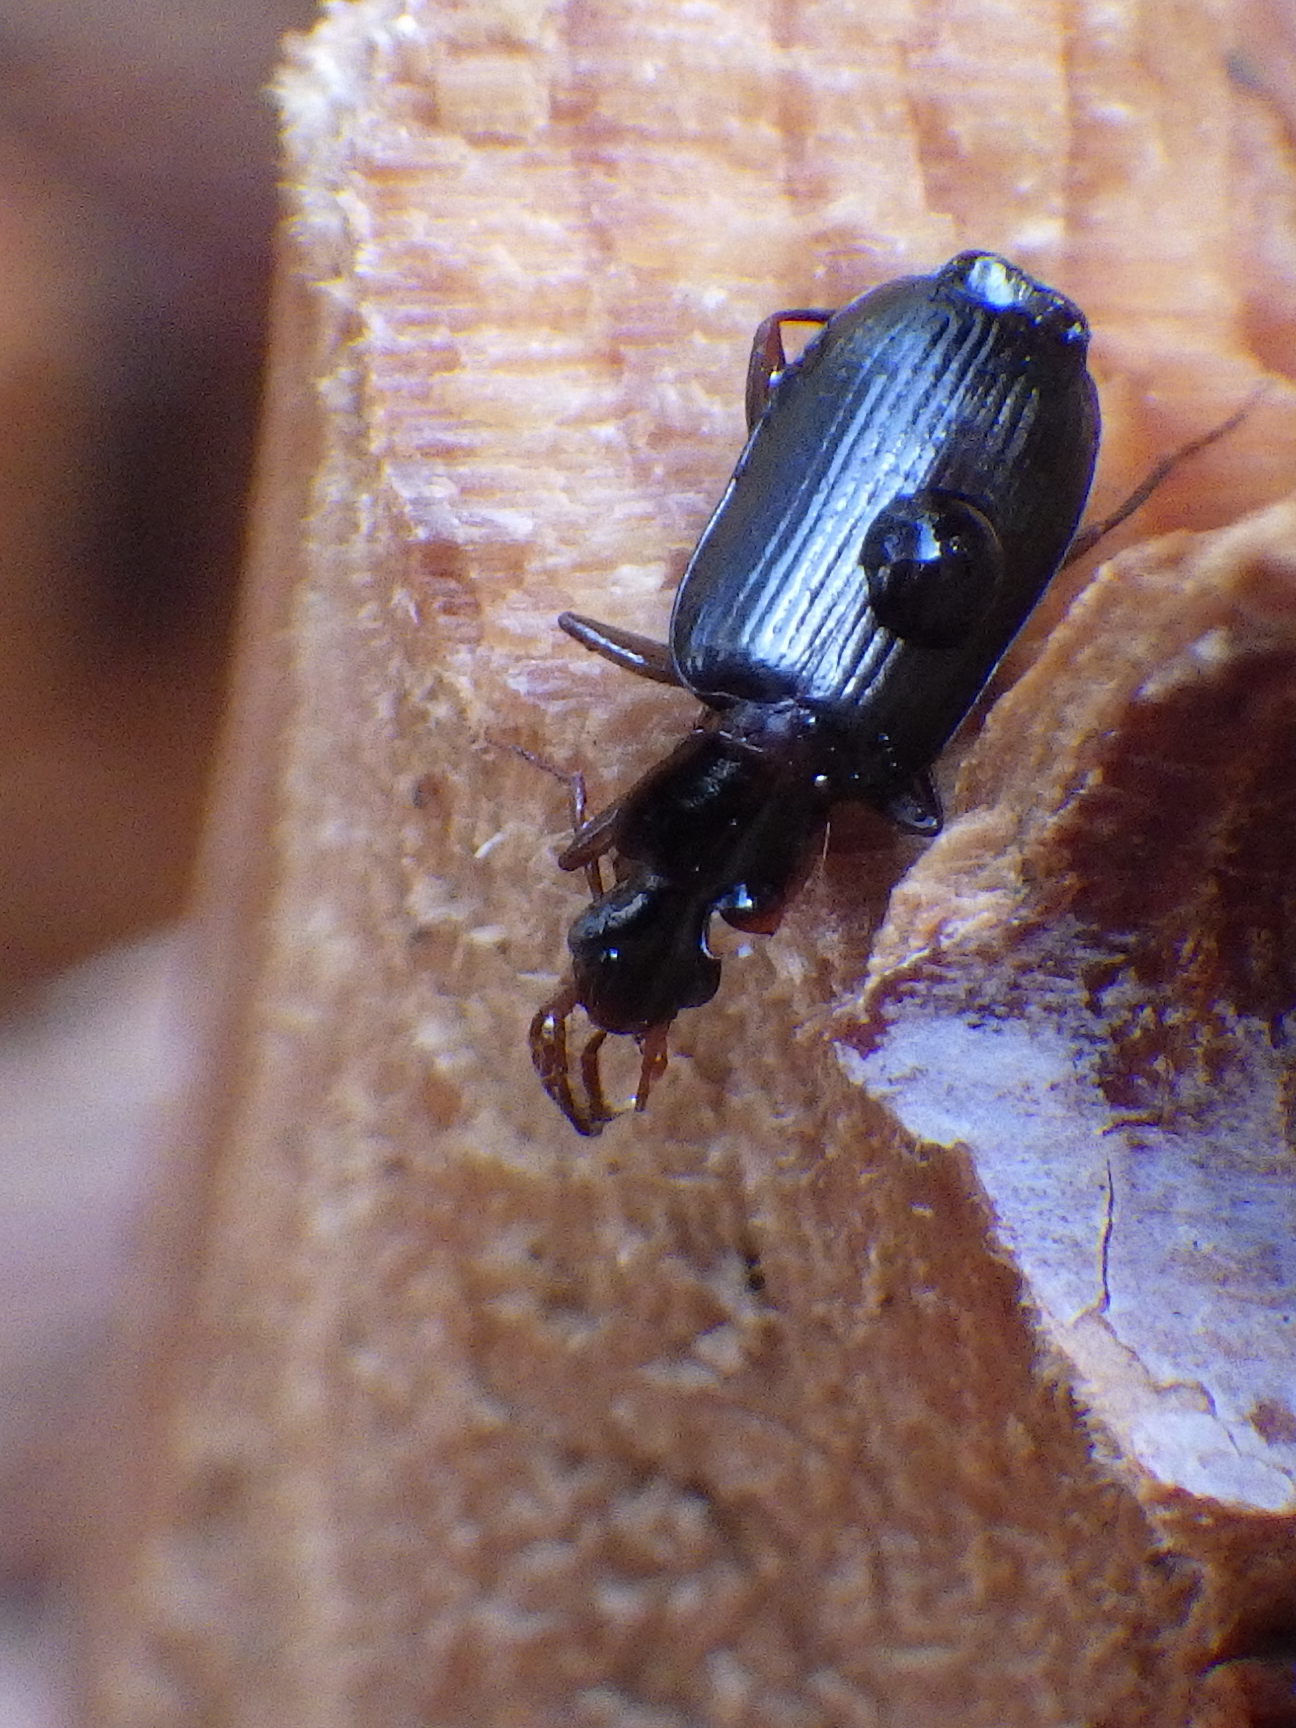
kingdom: Animalia
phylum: Arthropoda
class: Insecta
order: Coleoptera
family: Carabidae
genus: Dromius
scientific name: Dromius piceus
